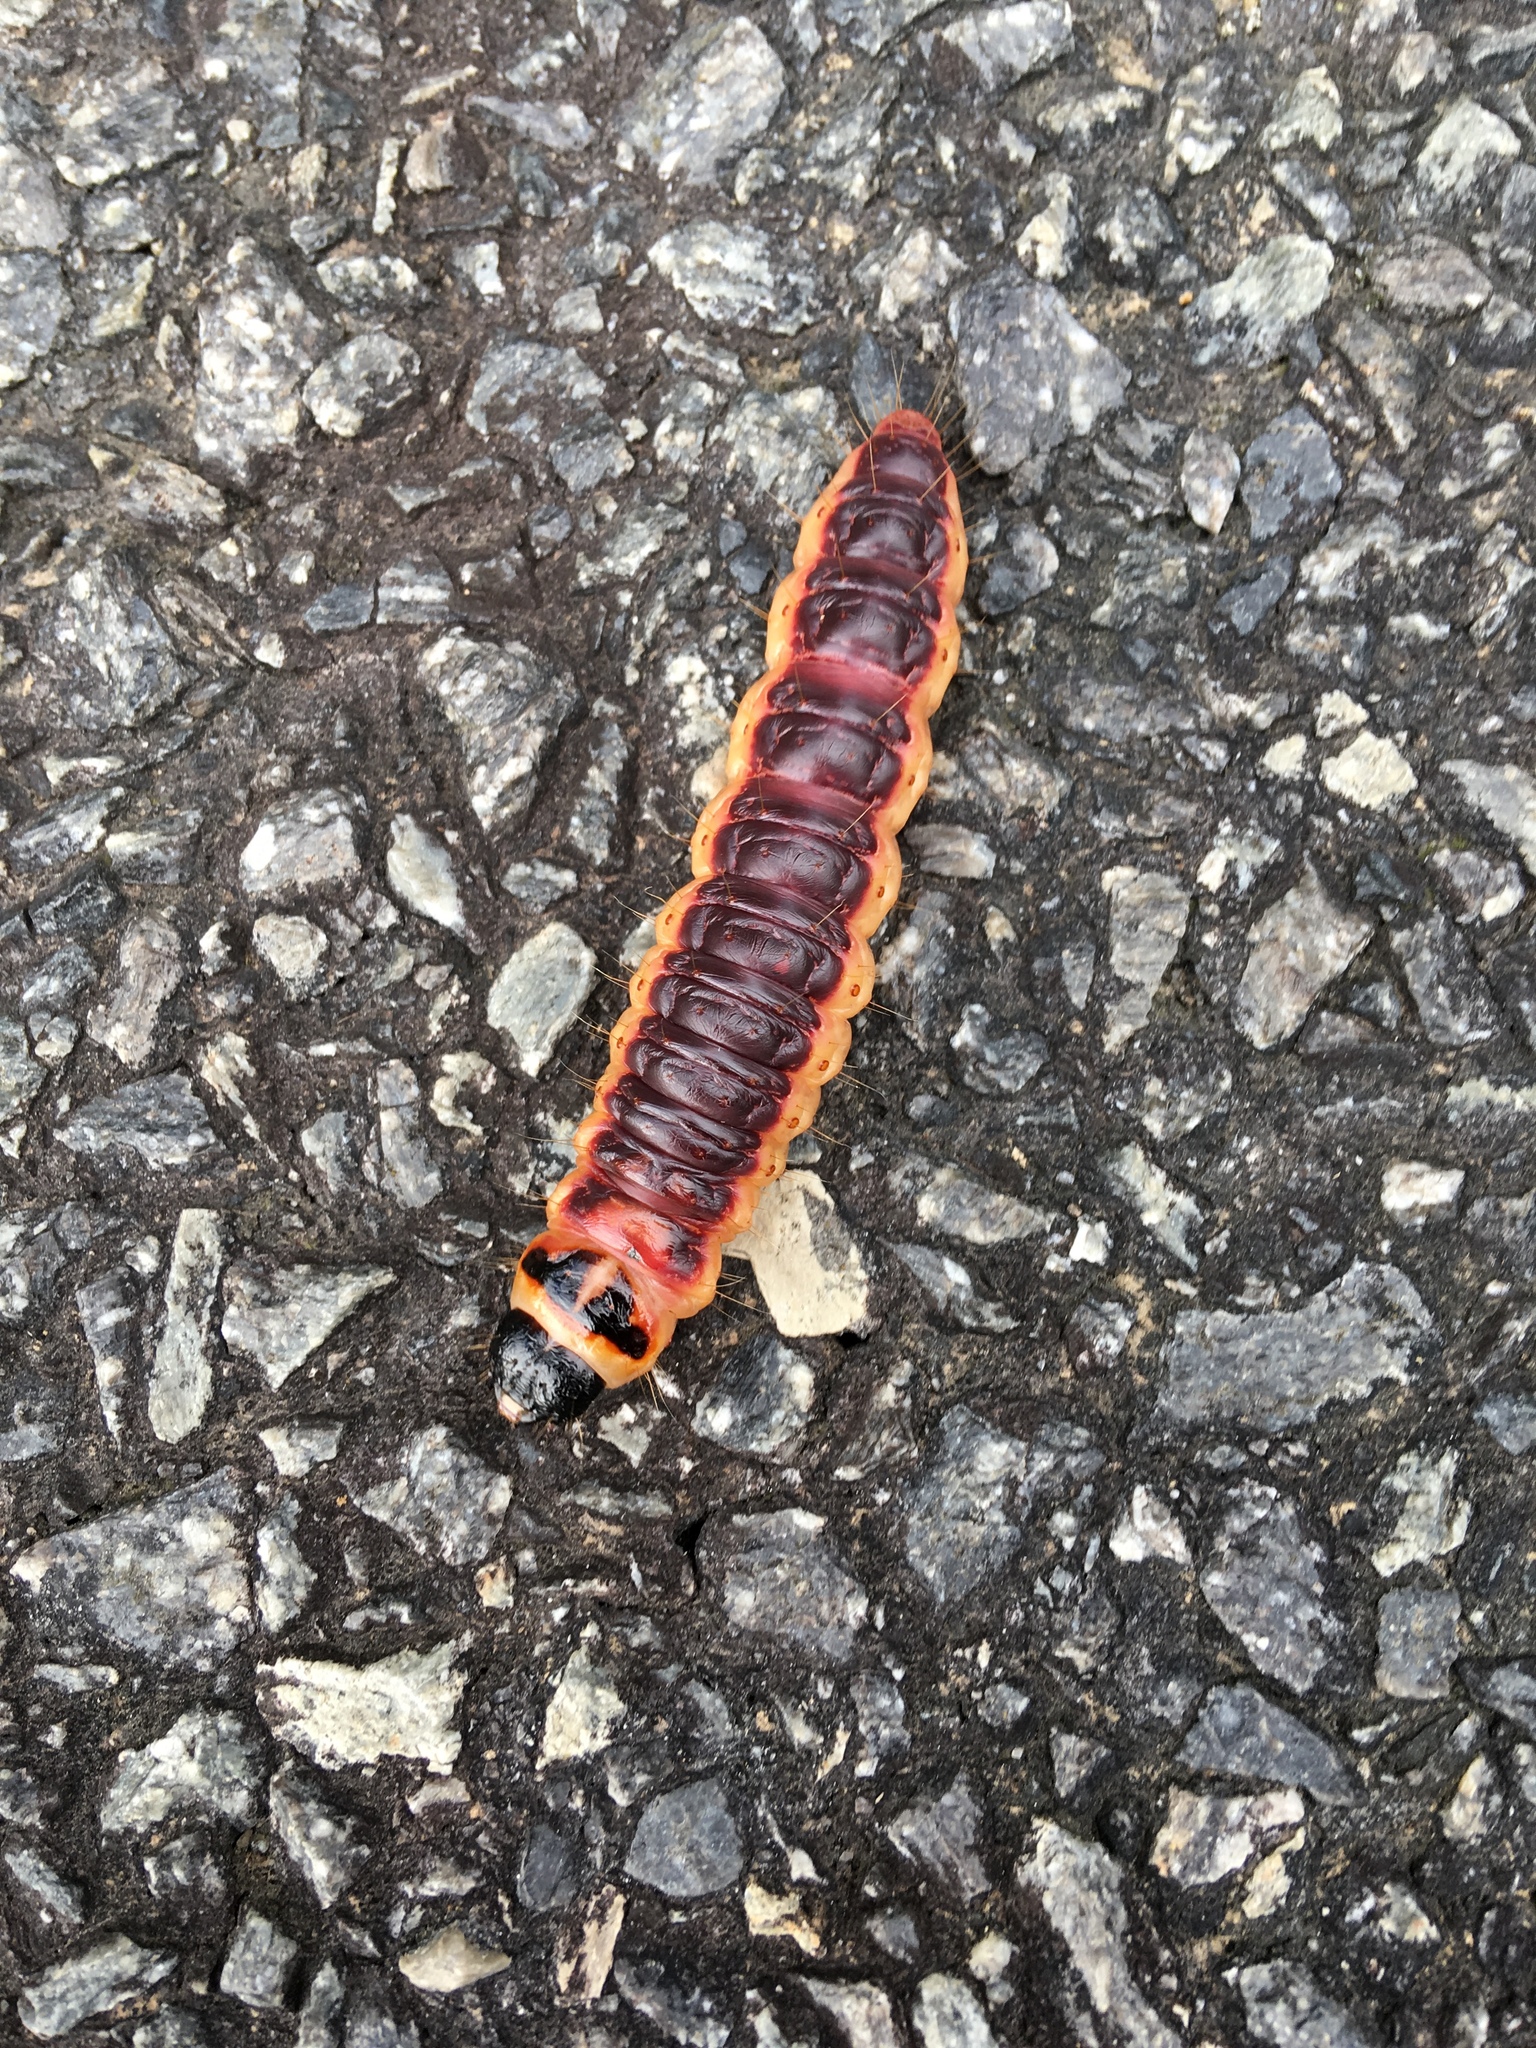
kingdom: Animalia
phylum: Arthropoda
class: Insecta
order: Lepidoptera
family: Cossidae
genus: Cossus
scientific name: Cossus cossus
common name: Goat moth
